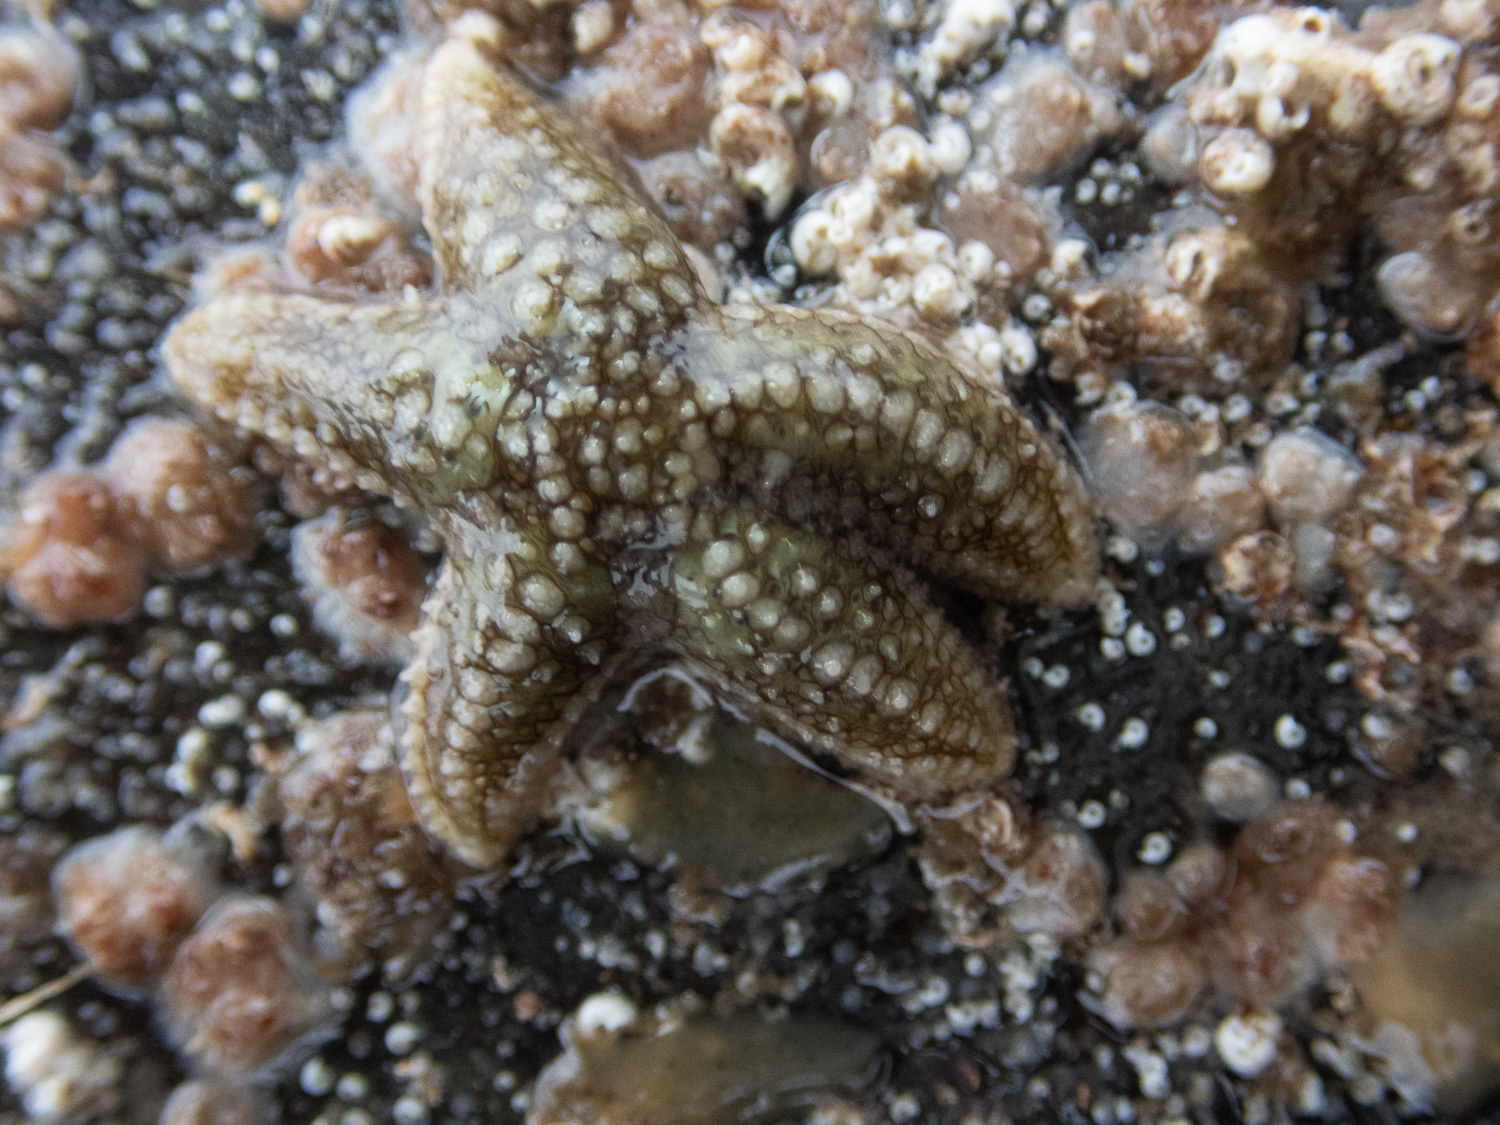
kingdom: Animalia
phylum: Echinodermata
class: Asteroidea
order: Forcipulatida
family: Asteriidae
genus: Leptasterias
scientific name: Leptasterias muelleri
